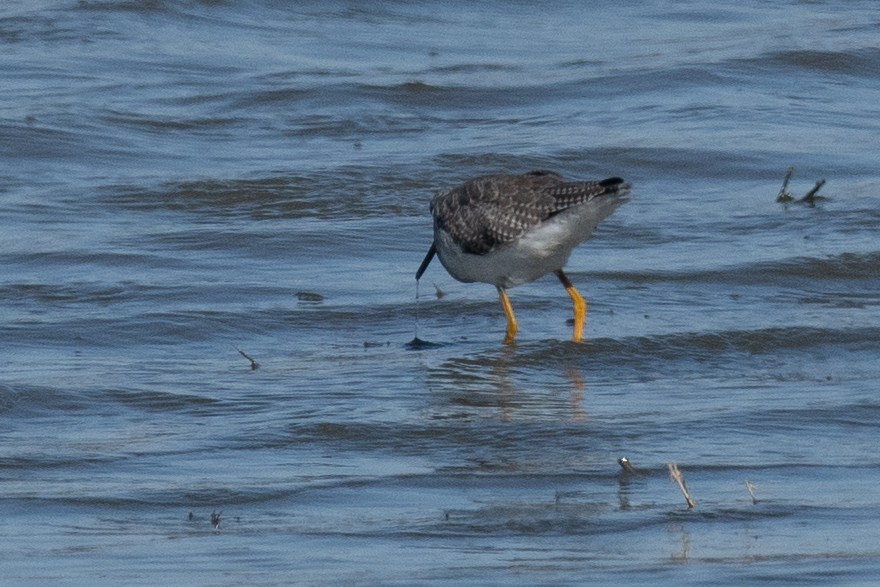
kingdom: Animalia
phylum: Chordata
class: Aves
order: Charadriiformes
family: Scolopacidae
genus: Tringa
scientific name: Tringa melanoleuca
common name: Greater yellowlegs
